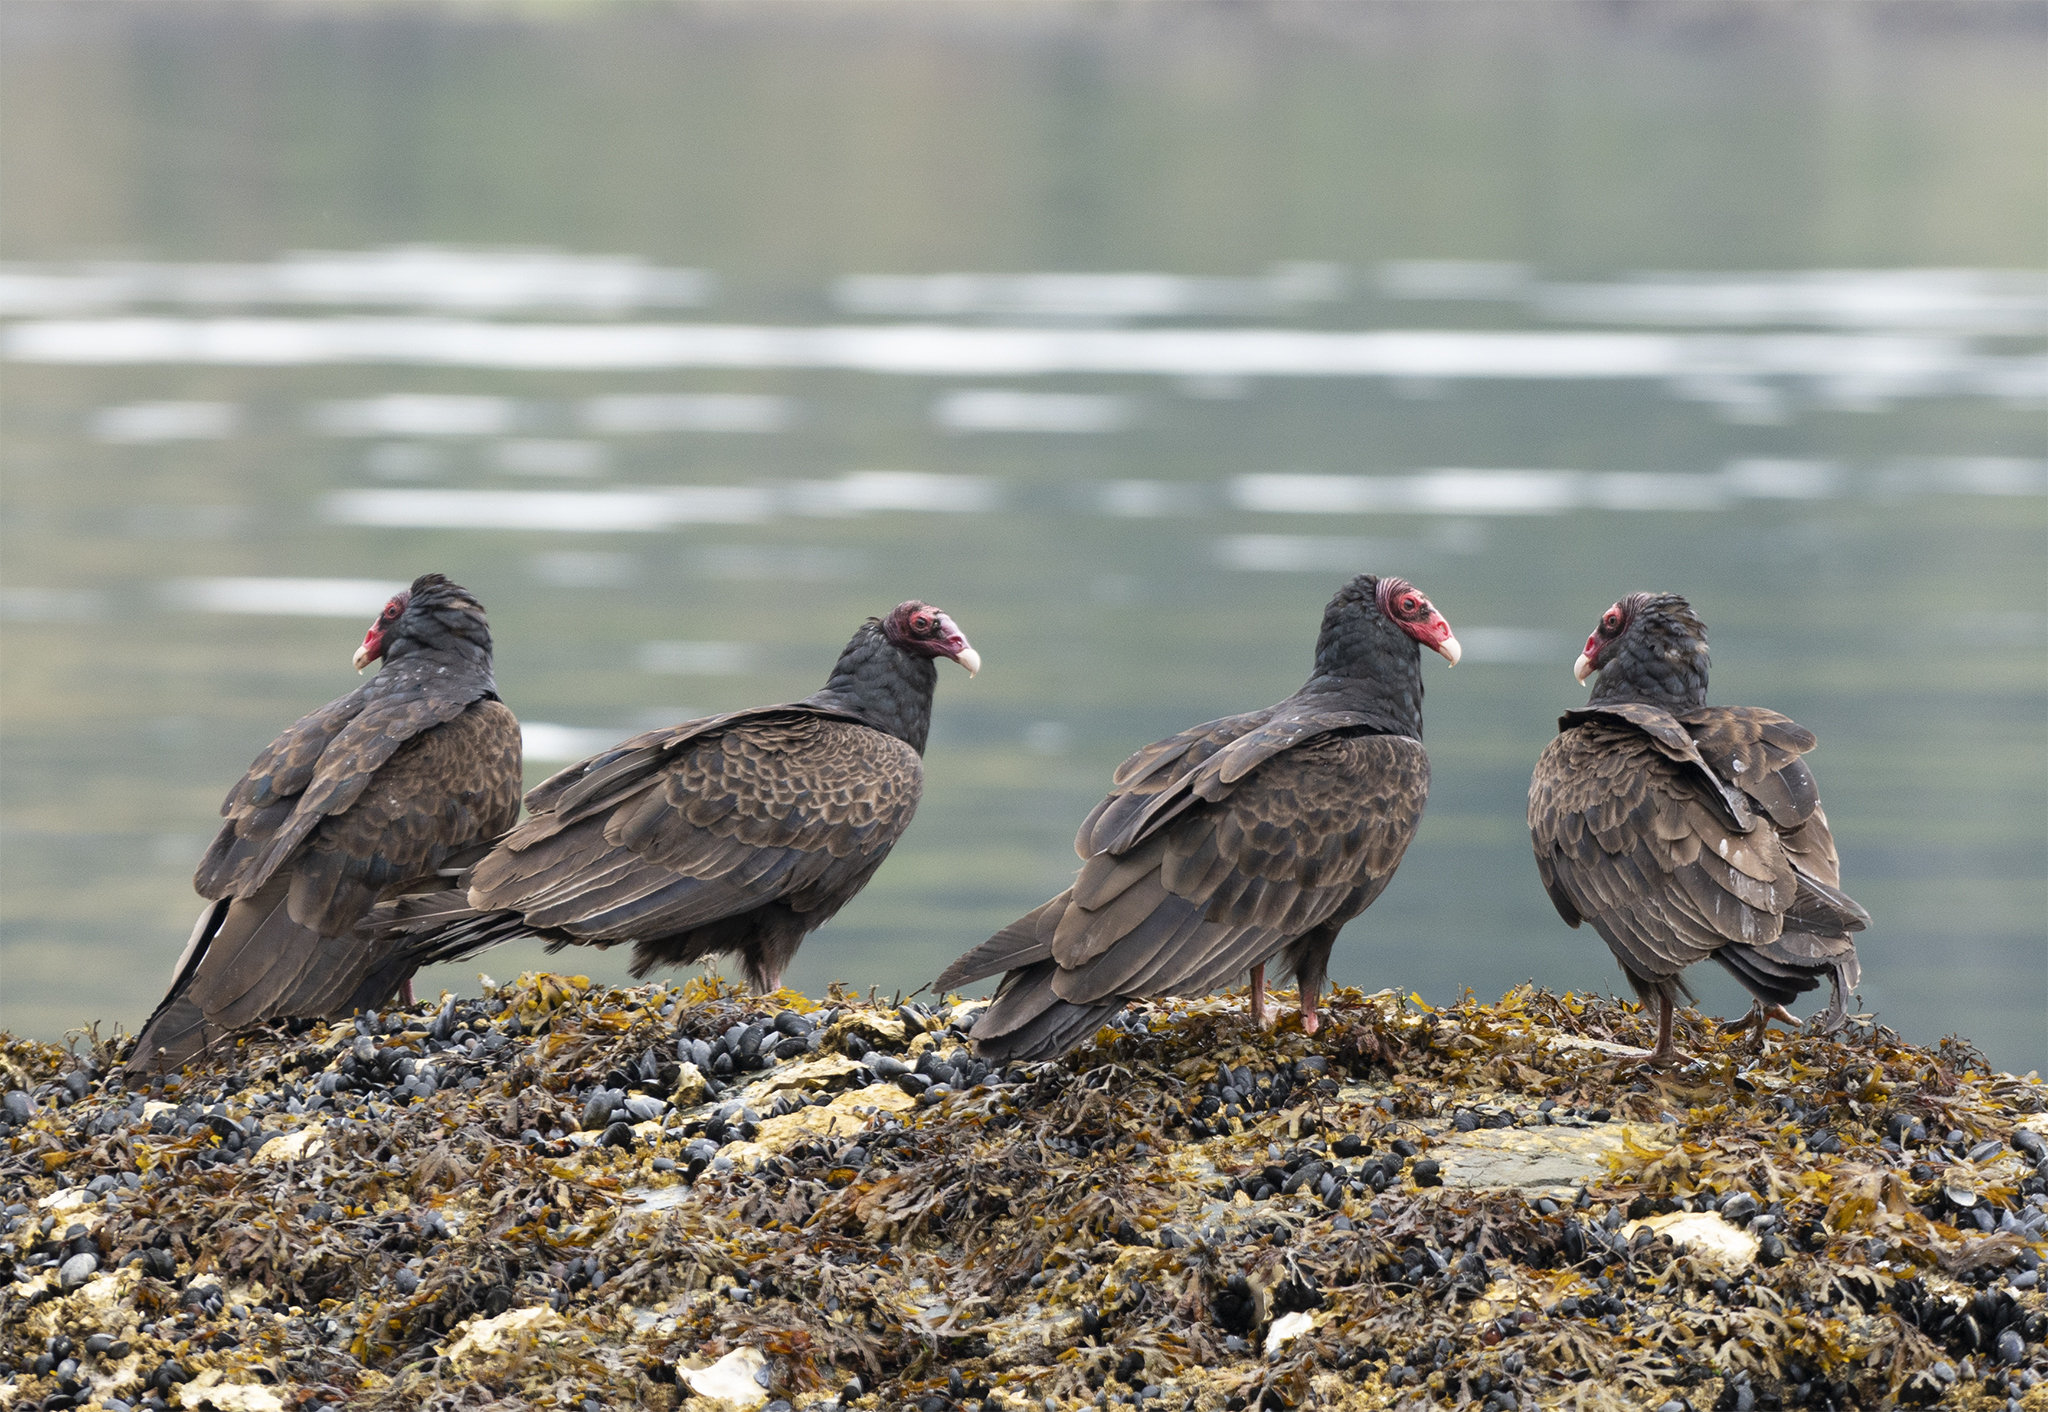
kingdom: Animalia
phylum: Chordata
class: Aves
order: Accipitriformes
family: Cathartidae
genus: Cathartes
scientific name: Cathartes aura
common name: Turkey vulture
